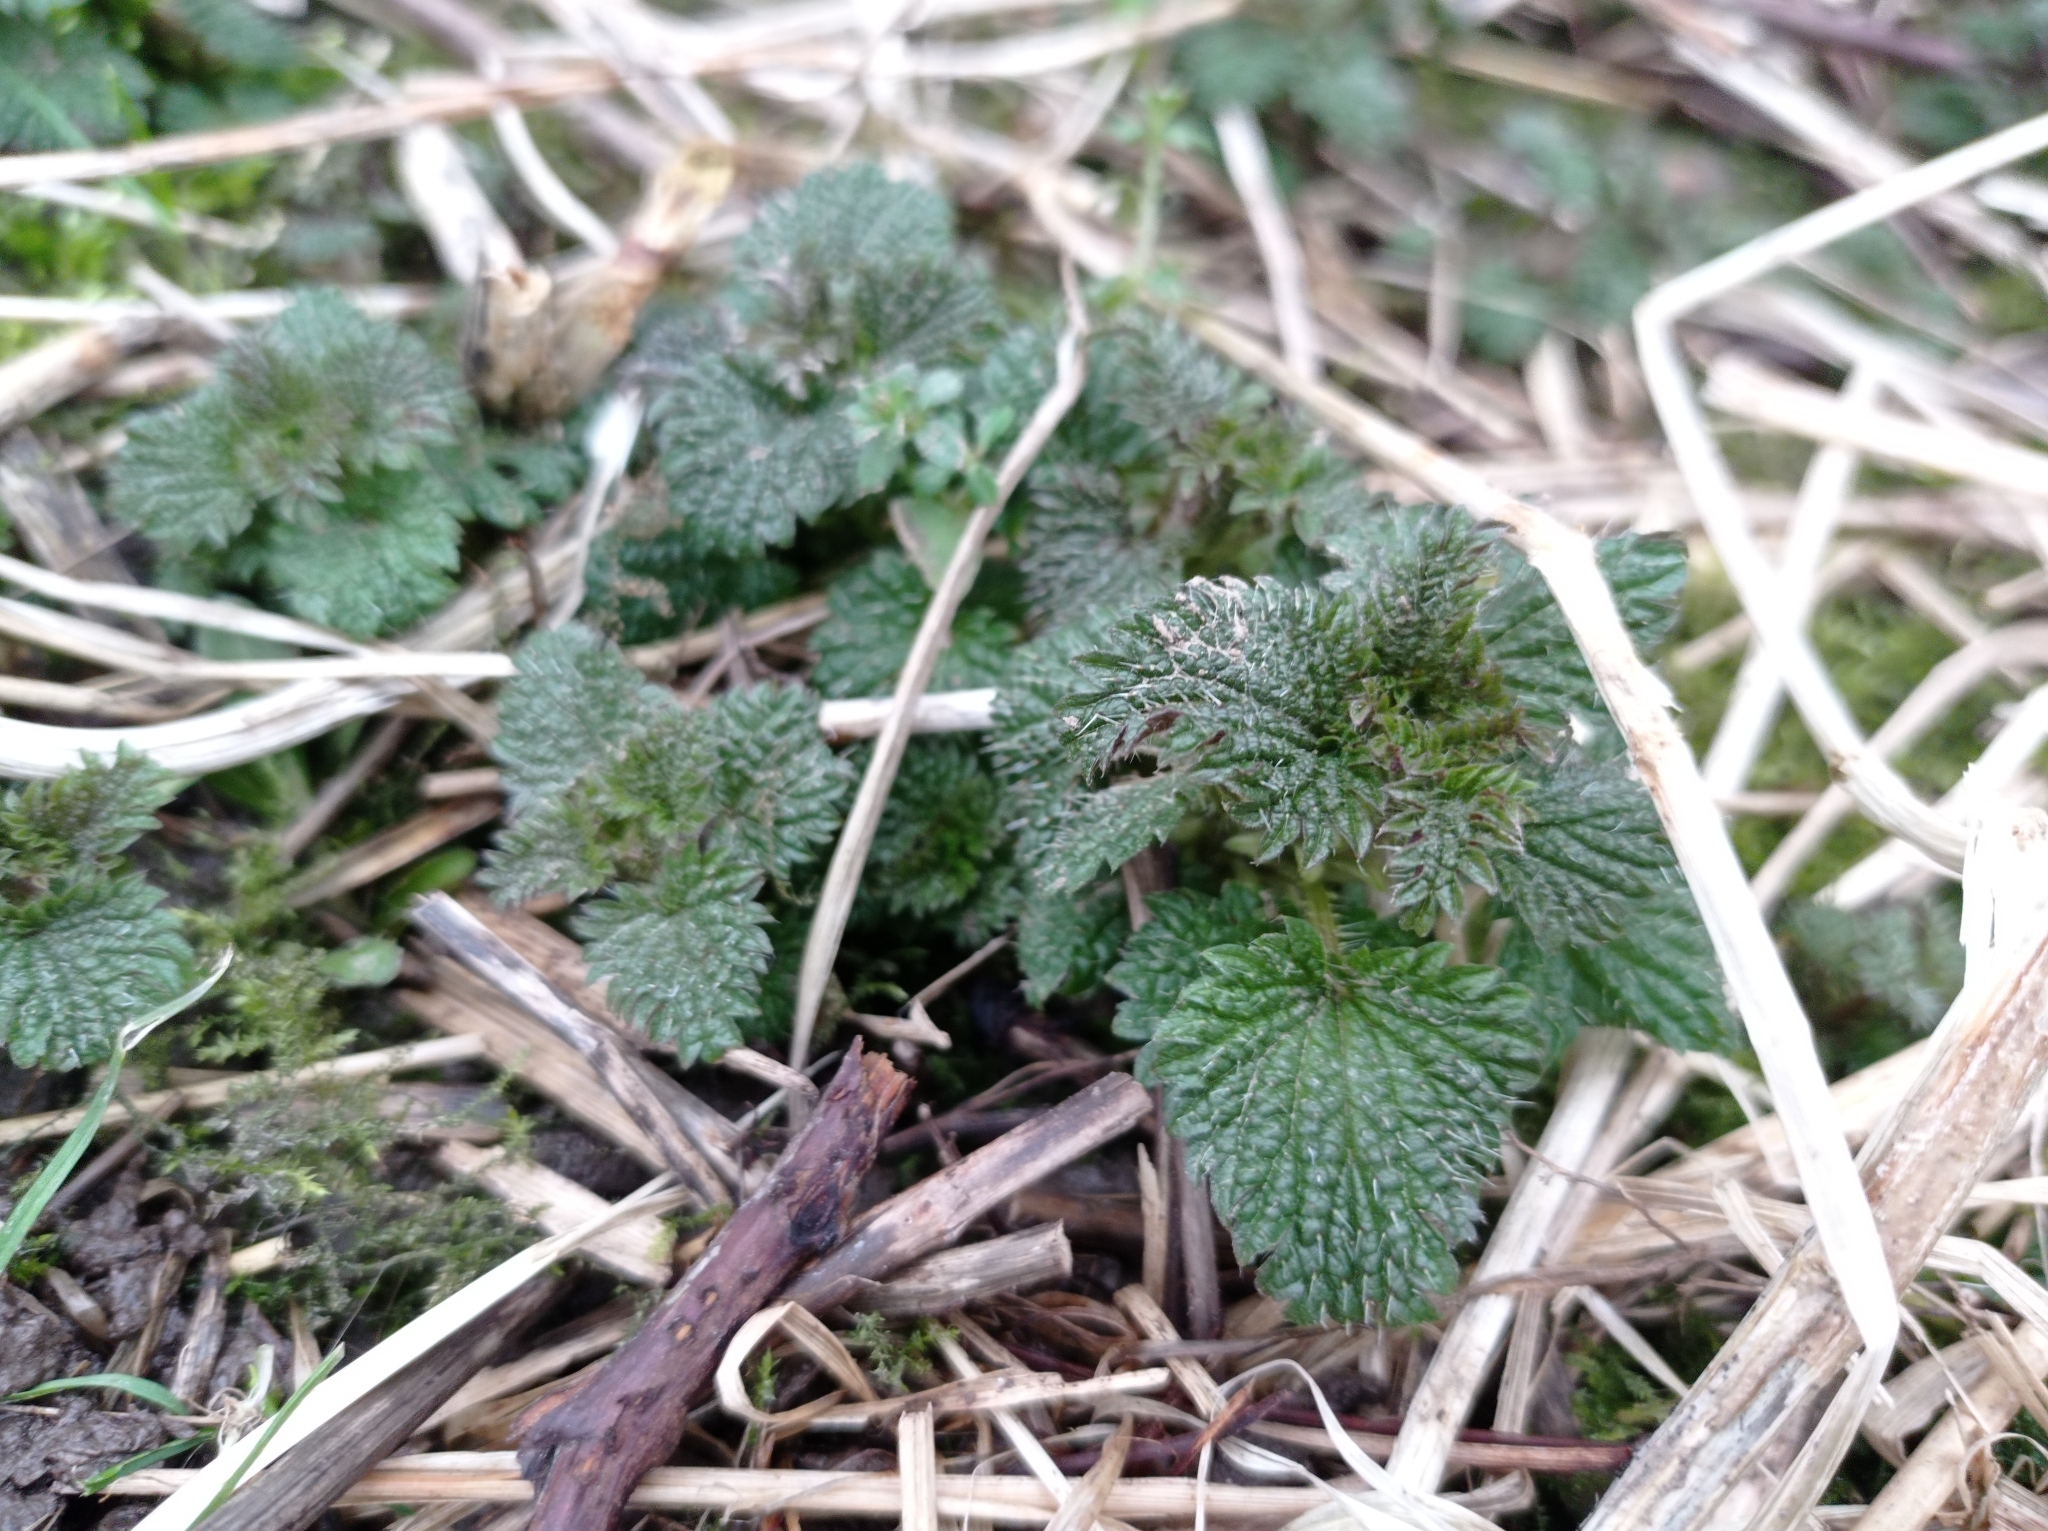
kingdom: Plantae
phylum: Tracheophyta
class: Magnoliopsida
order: Rosales
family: Urticaceae
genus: Urtica
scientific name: Urtica dioica
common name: Common nettle
